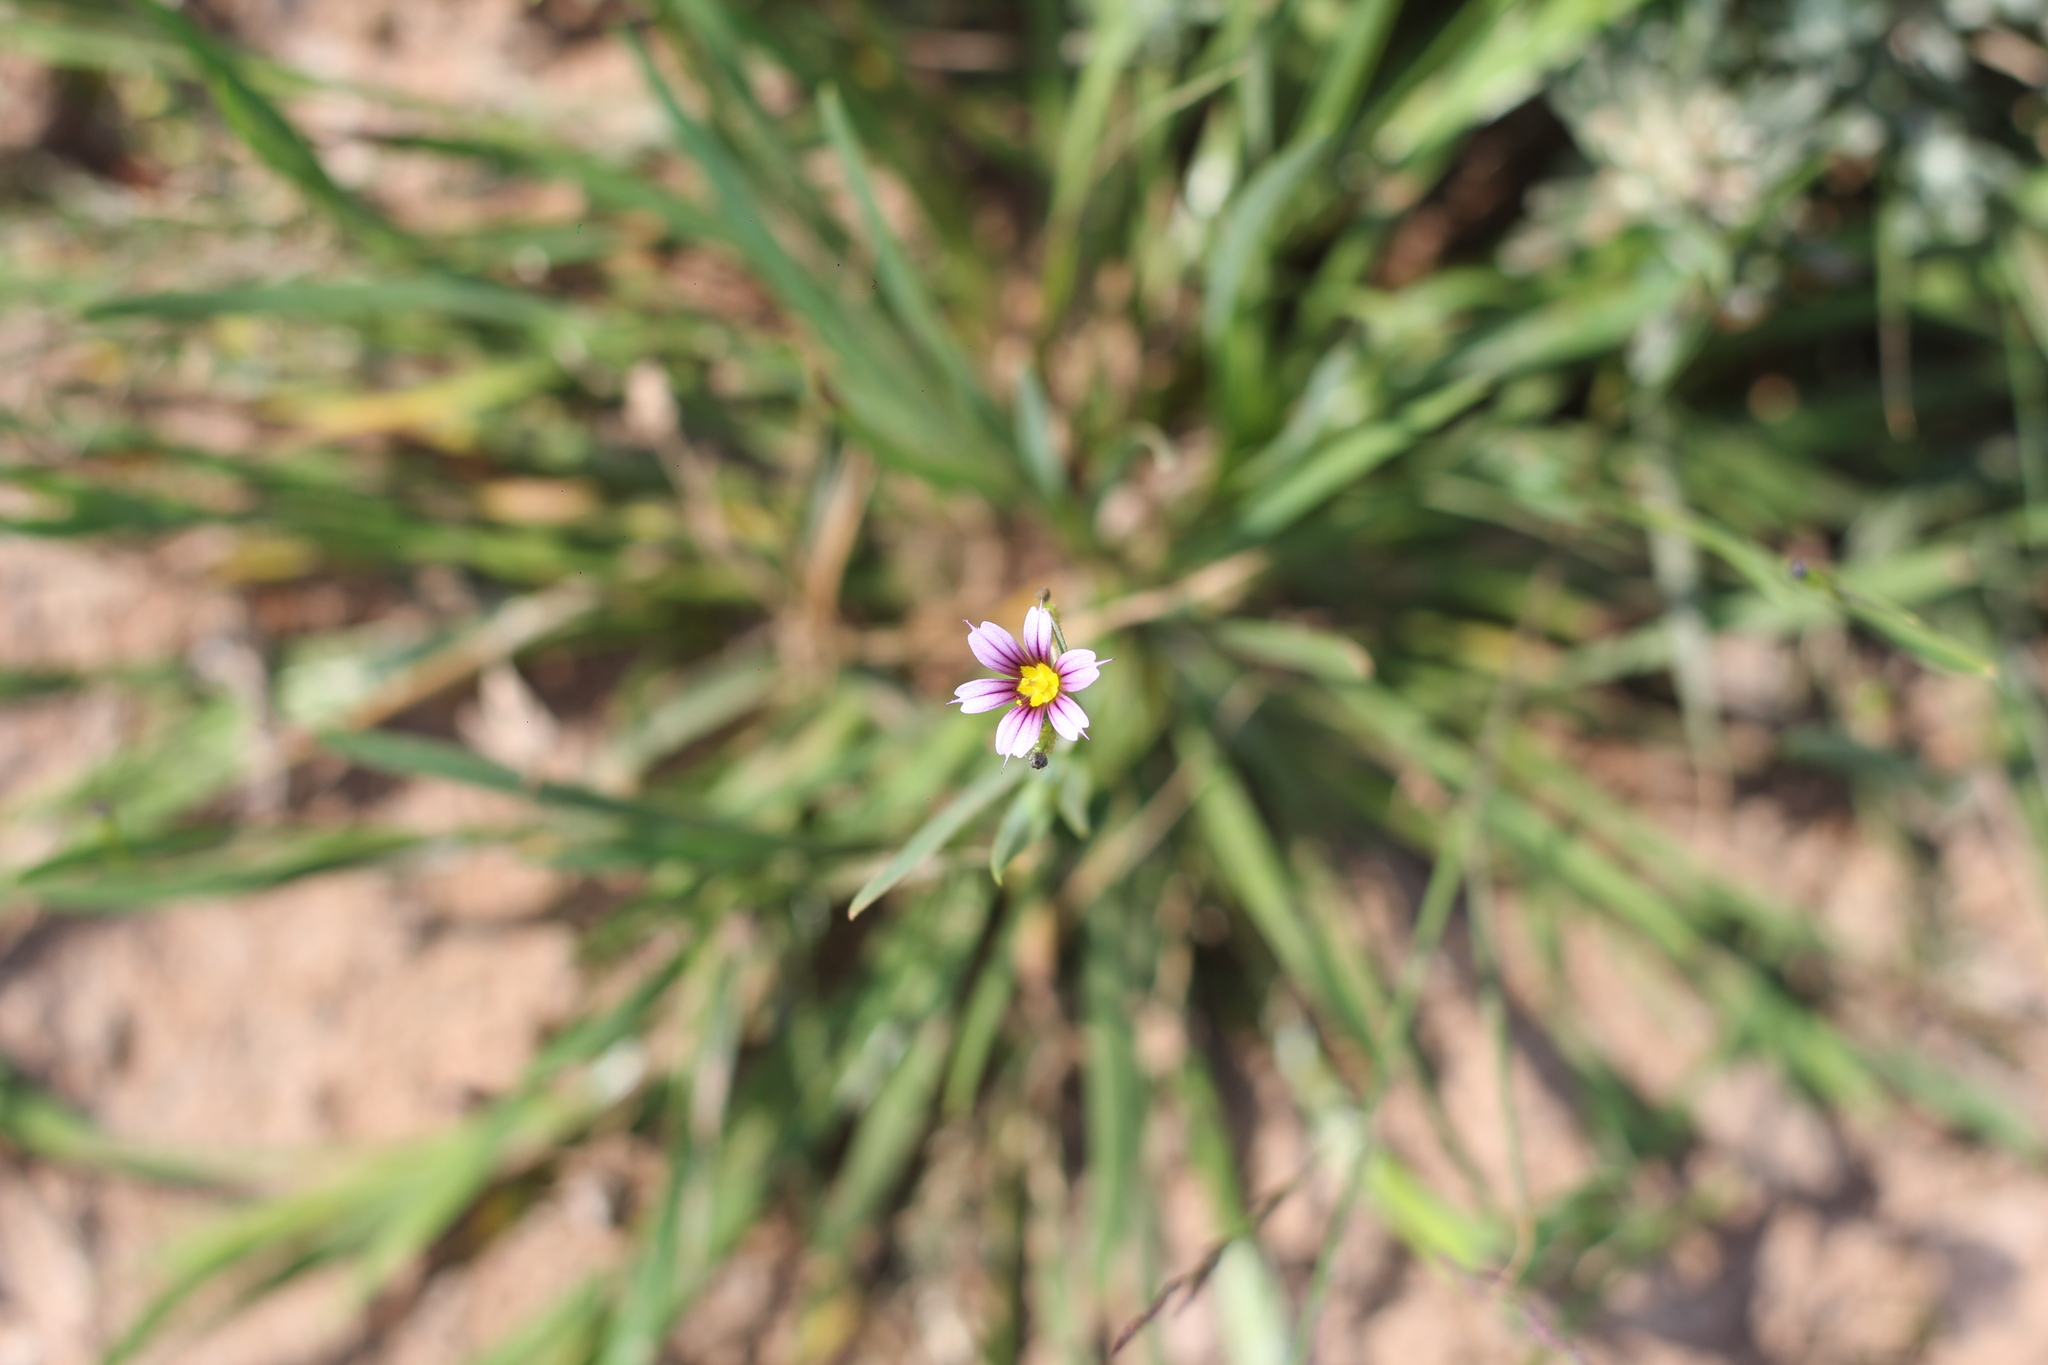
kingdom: Plantae
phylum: Tracheophyta
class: Liliopsida
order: Asparagales
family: Iridaceae
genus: Sisyrinchium
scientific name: Sisyrinchium minutiflorum
